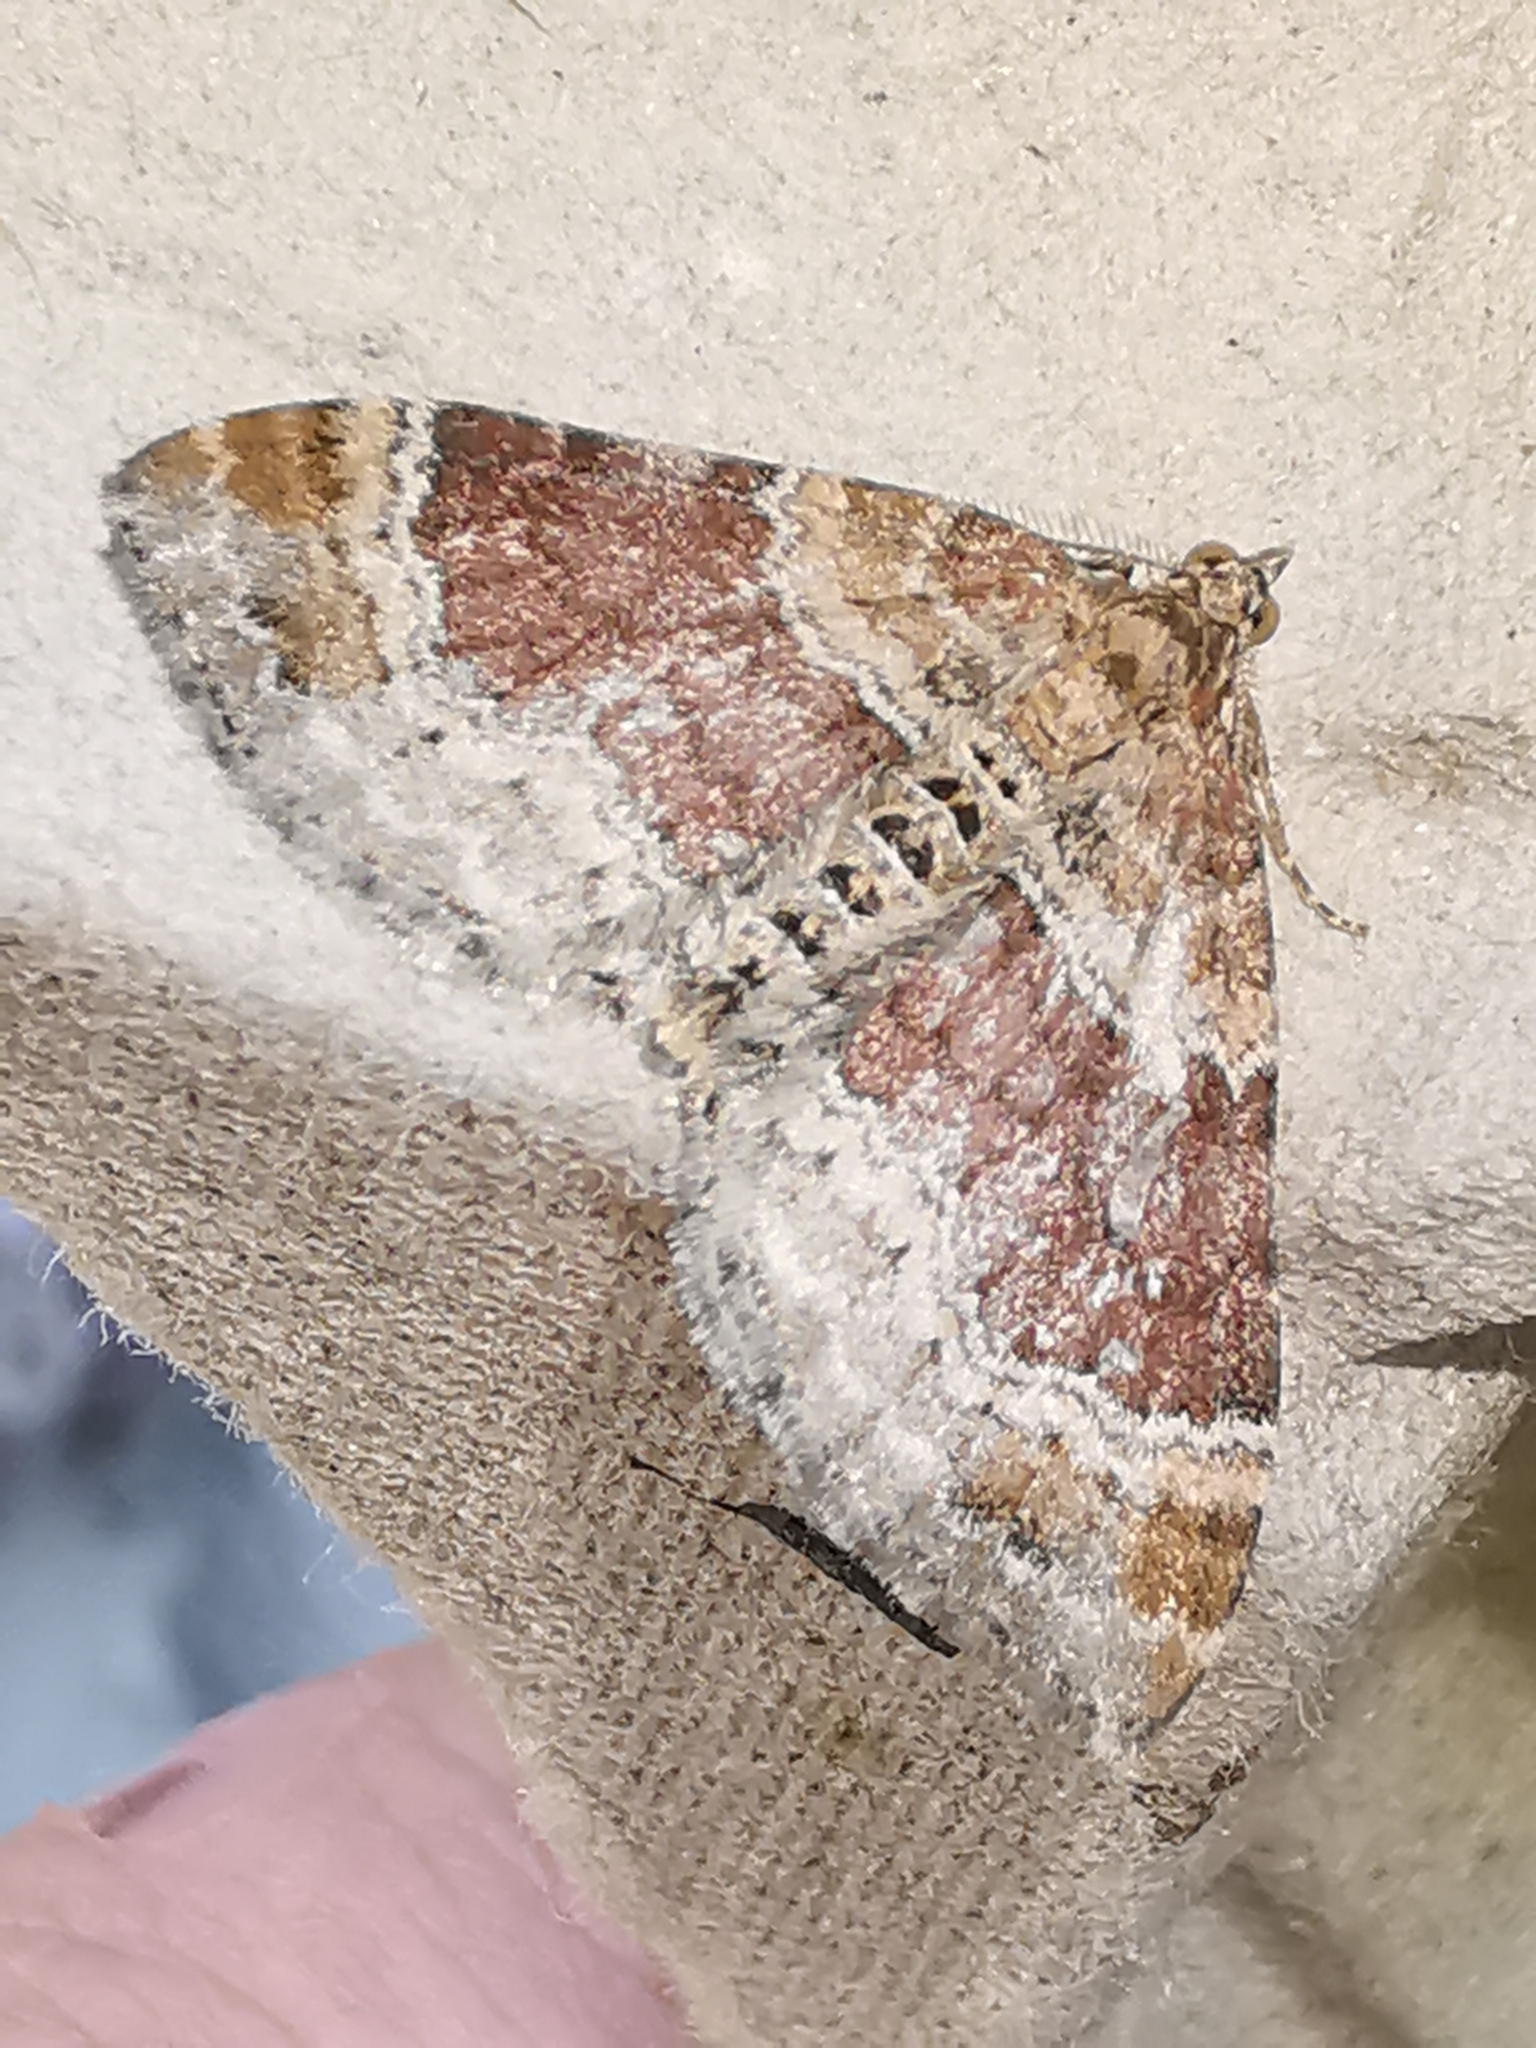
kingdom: Animalia
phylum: Arthropoda
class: Insecta
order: Lepidoptera
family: Geometridae
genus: Xanthorhoe
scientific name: Xanthorhoe spadicearia
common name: Red twin-spot carpet
